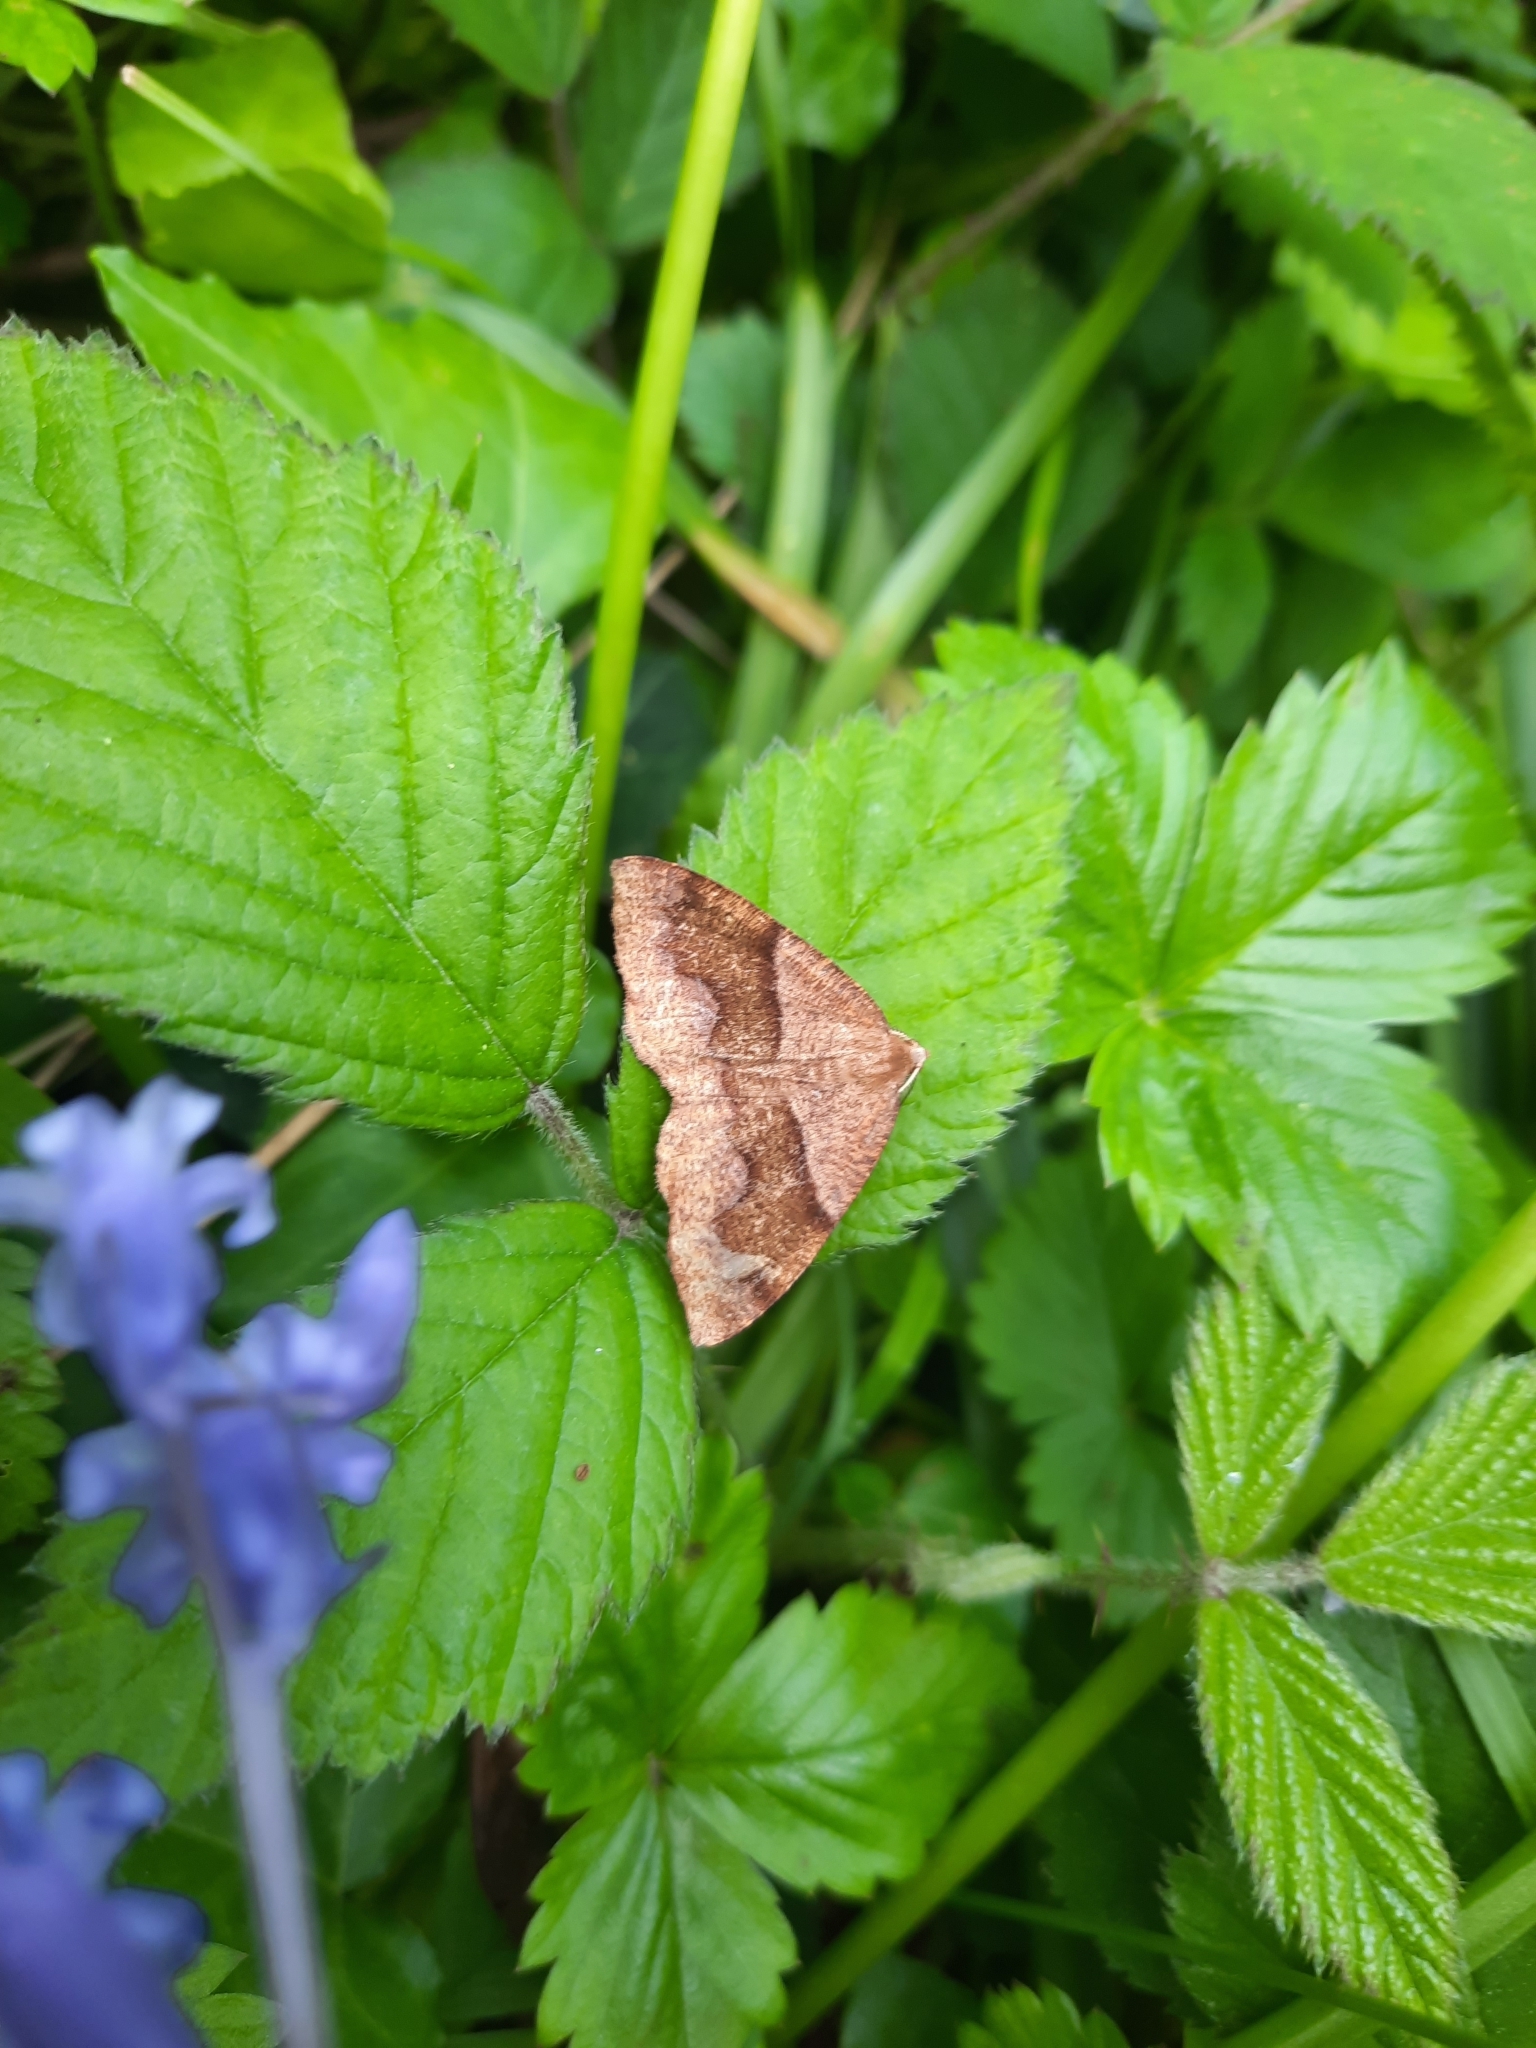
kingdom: Animalia
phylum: Arthropoda
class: Insecta
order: Lepidoptera
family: Geometridae
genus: Plagodis
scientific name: Plagodis pulveraria
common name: Barred umber
